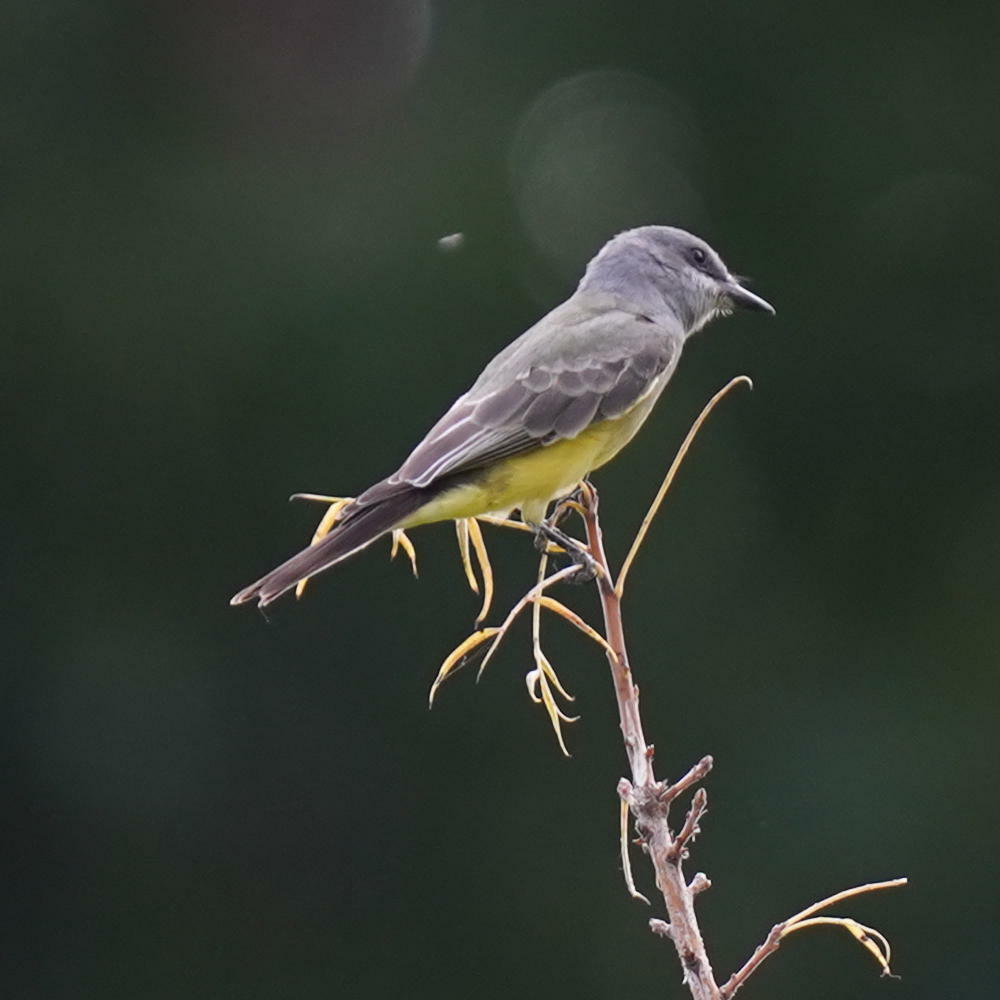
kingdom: Animalia
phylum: Chordata
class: Aves
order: Passeriformes
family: Tyrannidae
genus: Tyrannus
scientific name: Tyrannus vociferans
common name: Cassin's kingbird
